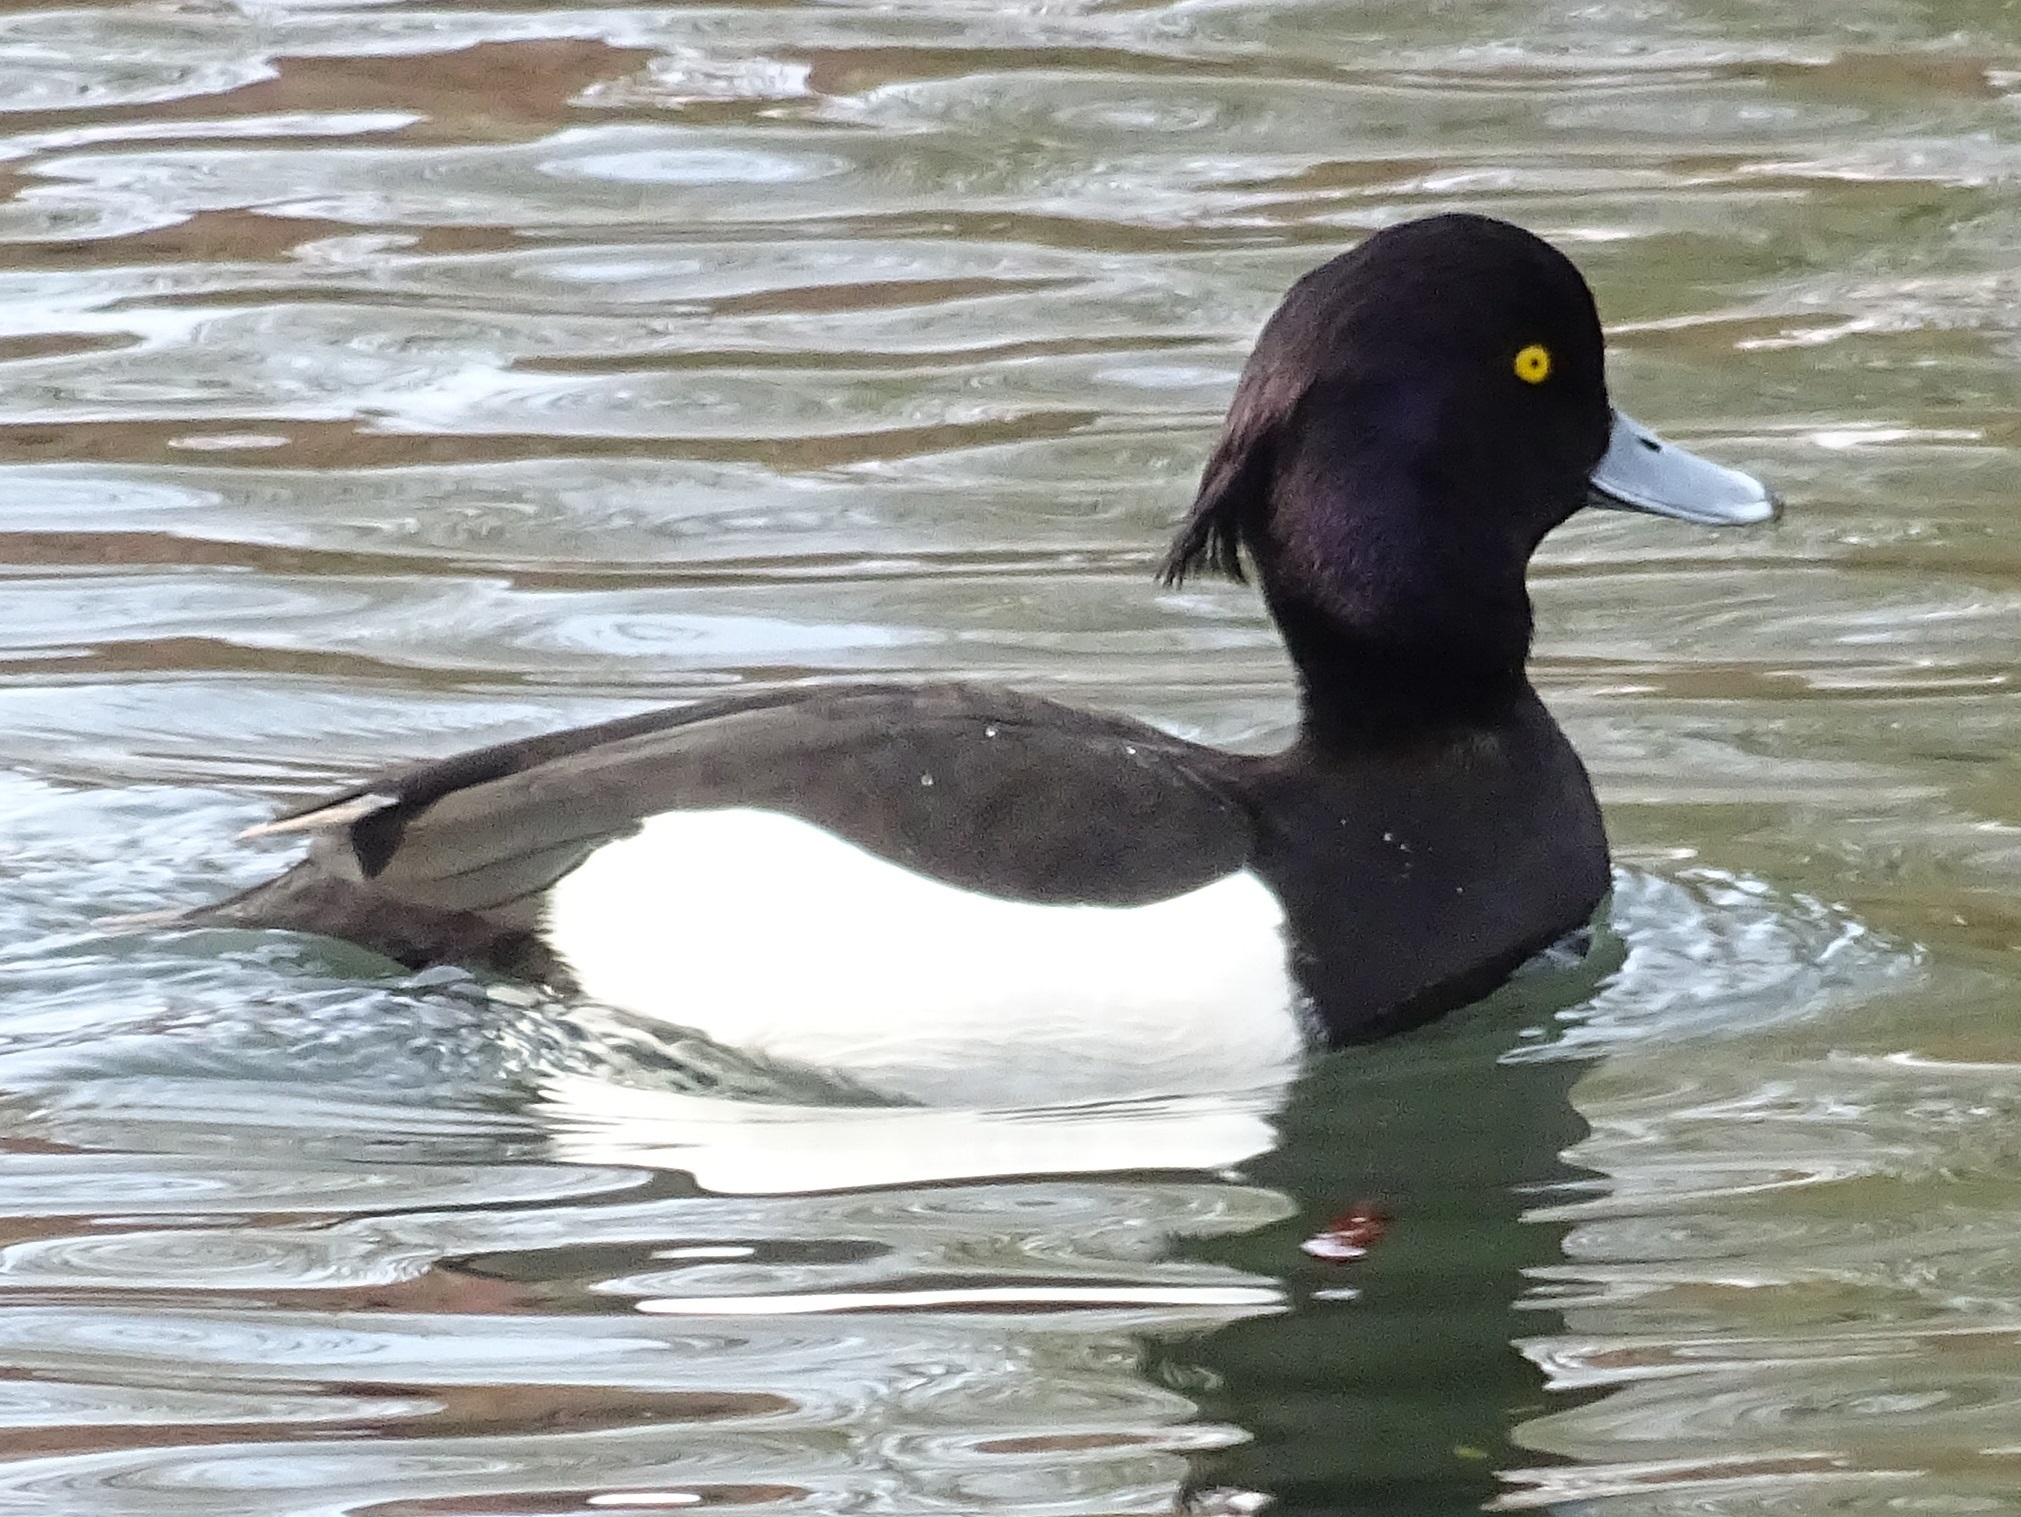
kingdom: Animalia
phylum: Chordata
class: Aves
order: Anseriformes
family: Anatidae
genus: Aythya
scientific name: Aythya fuligula
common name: Tufted duck
